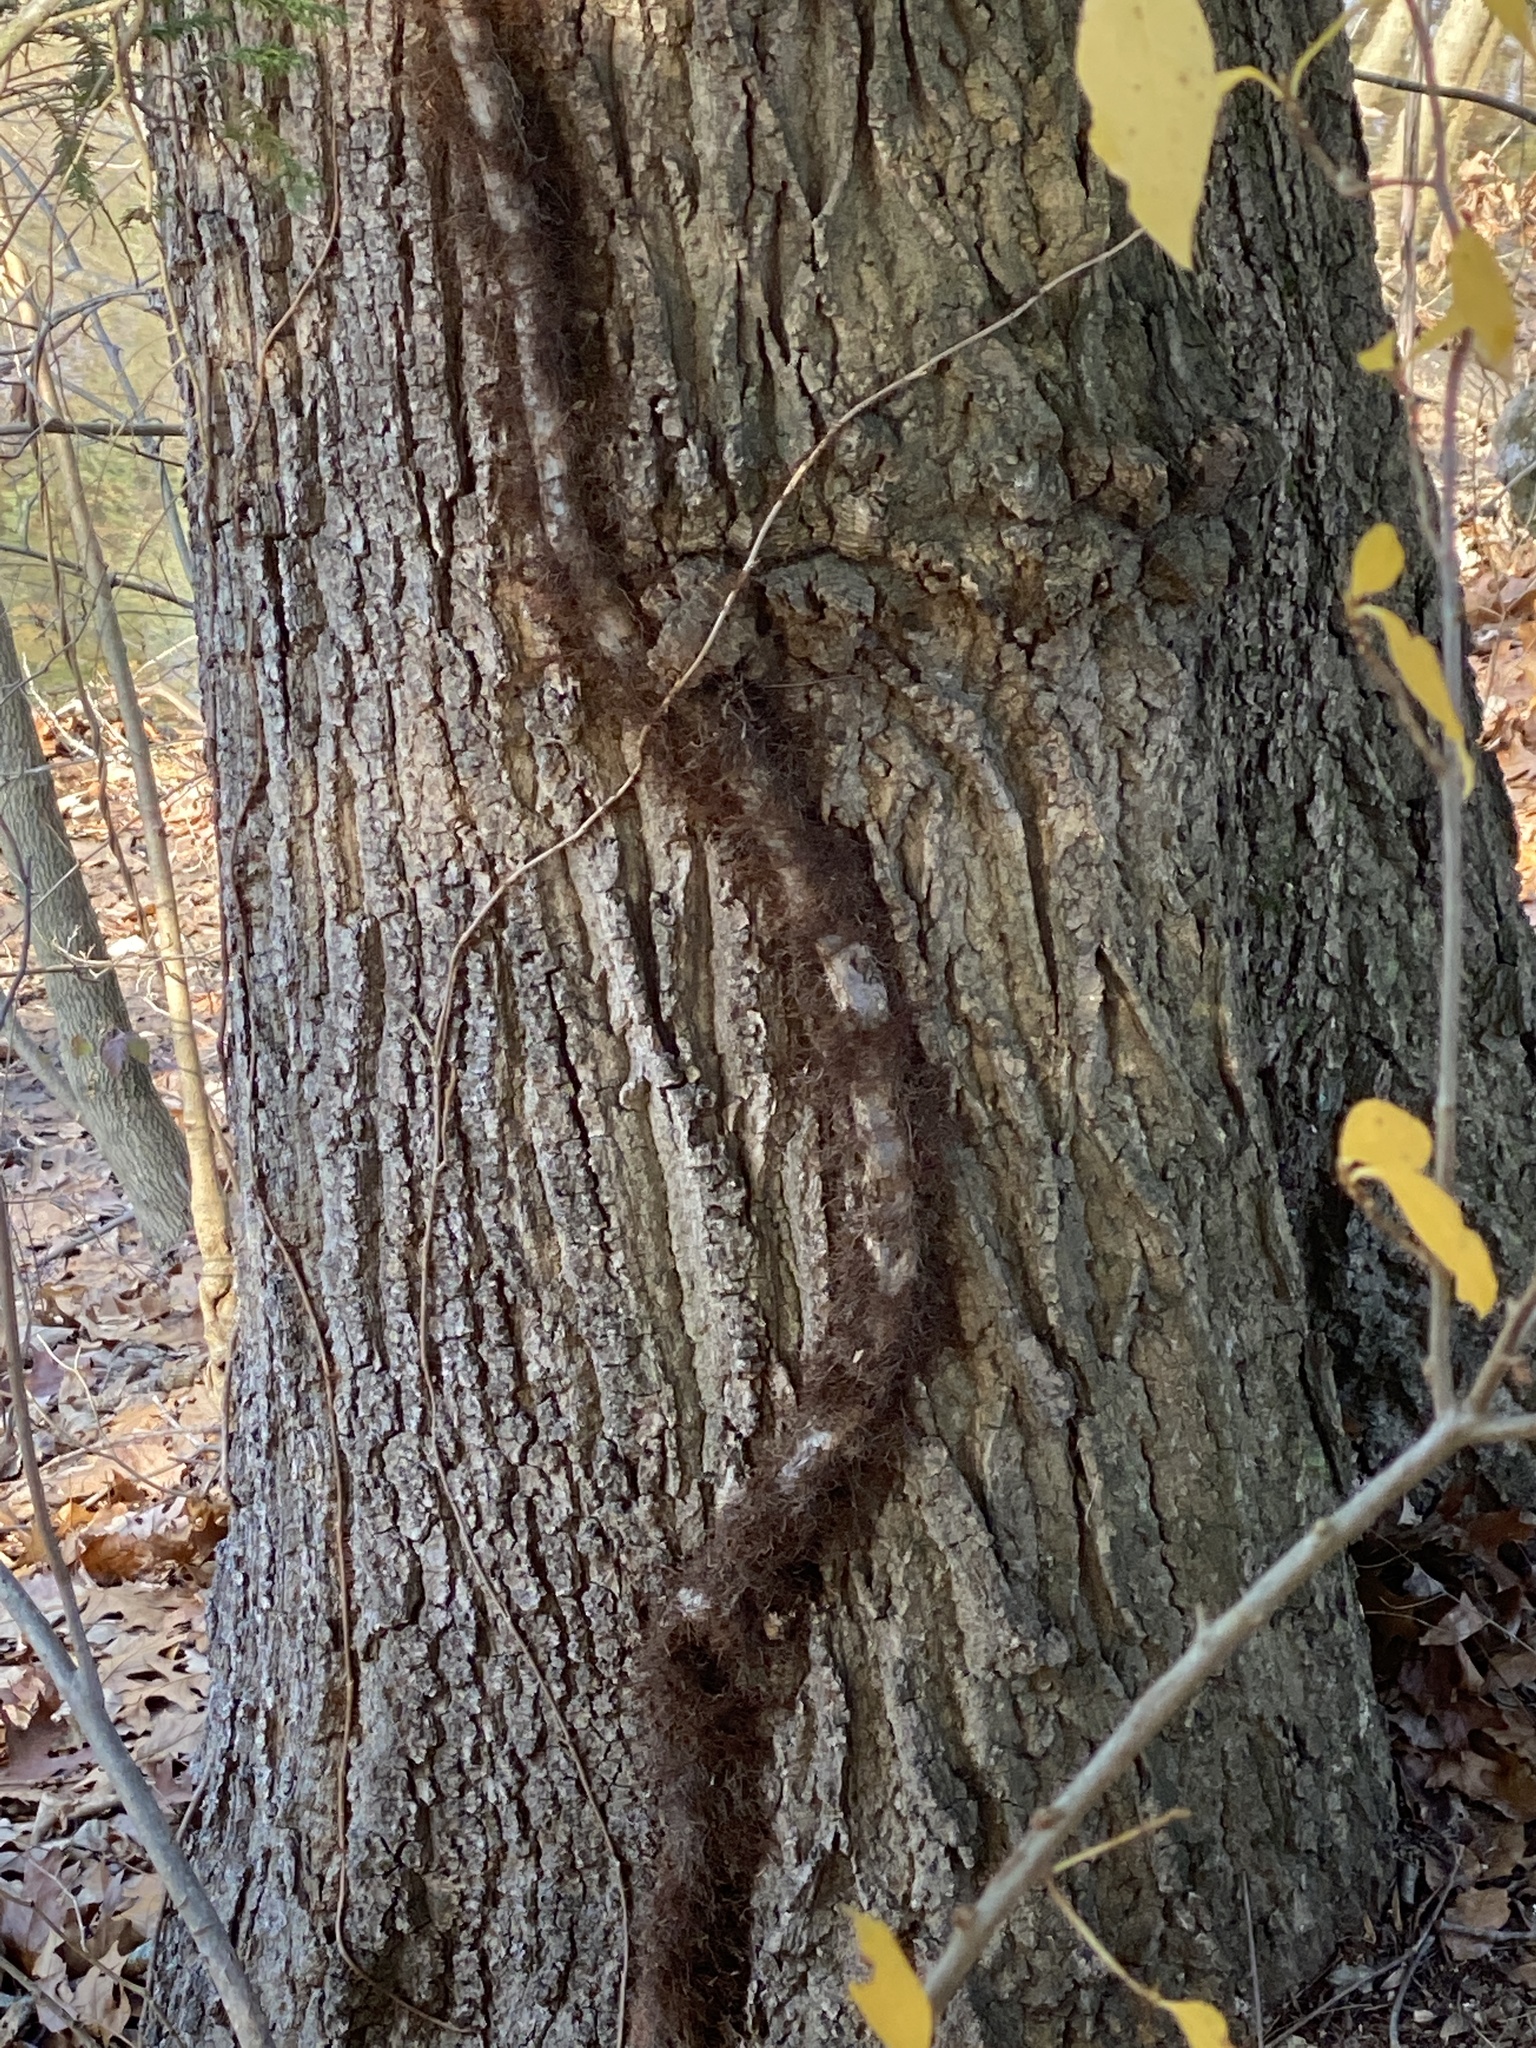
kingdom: Plantae
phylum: Tracheophyta
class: Magnoliopsida
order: Sapindales
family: Anacardiaceae
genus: Toxicodendron
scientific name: Toxicodendron radicans
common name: Poison ivy
